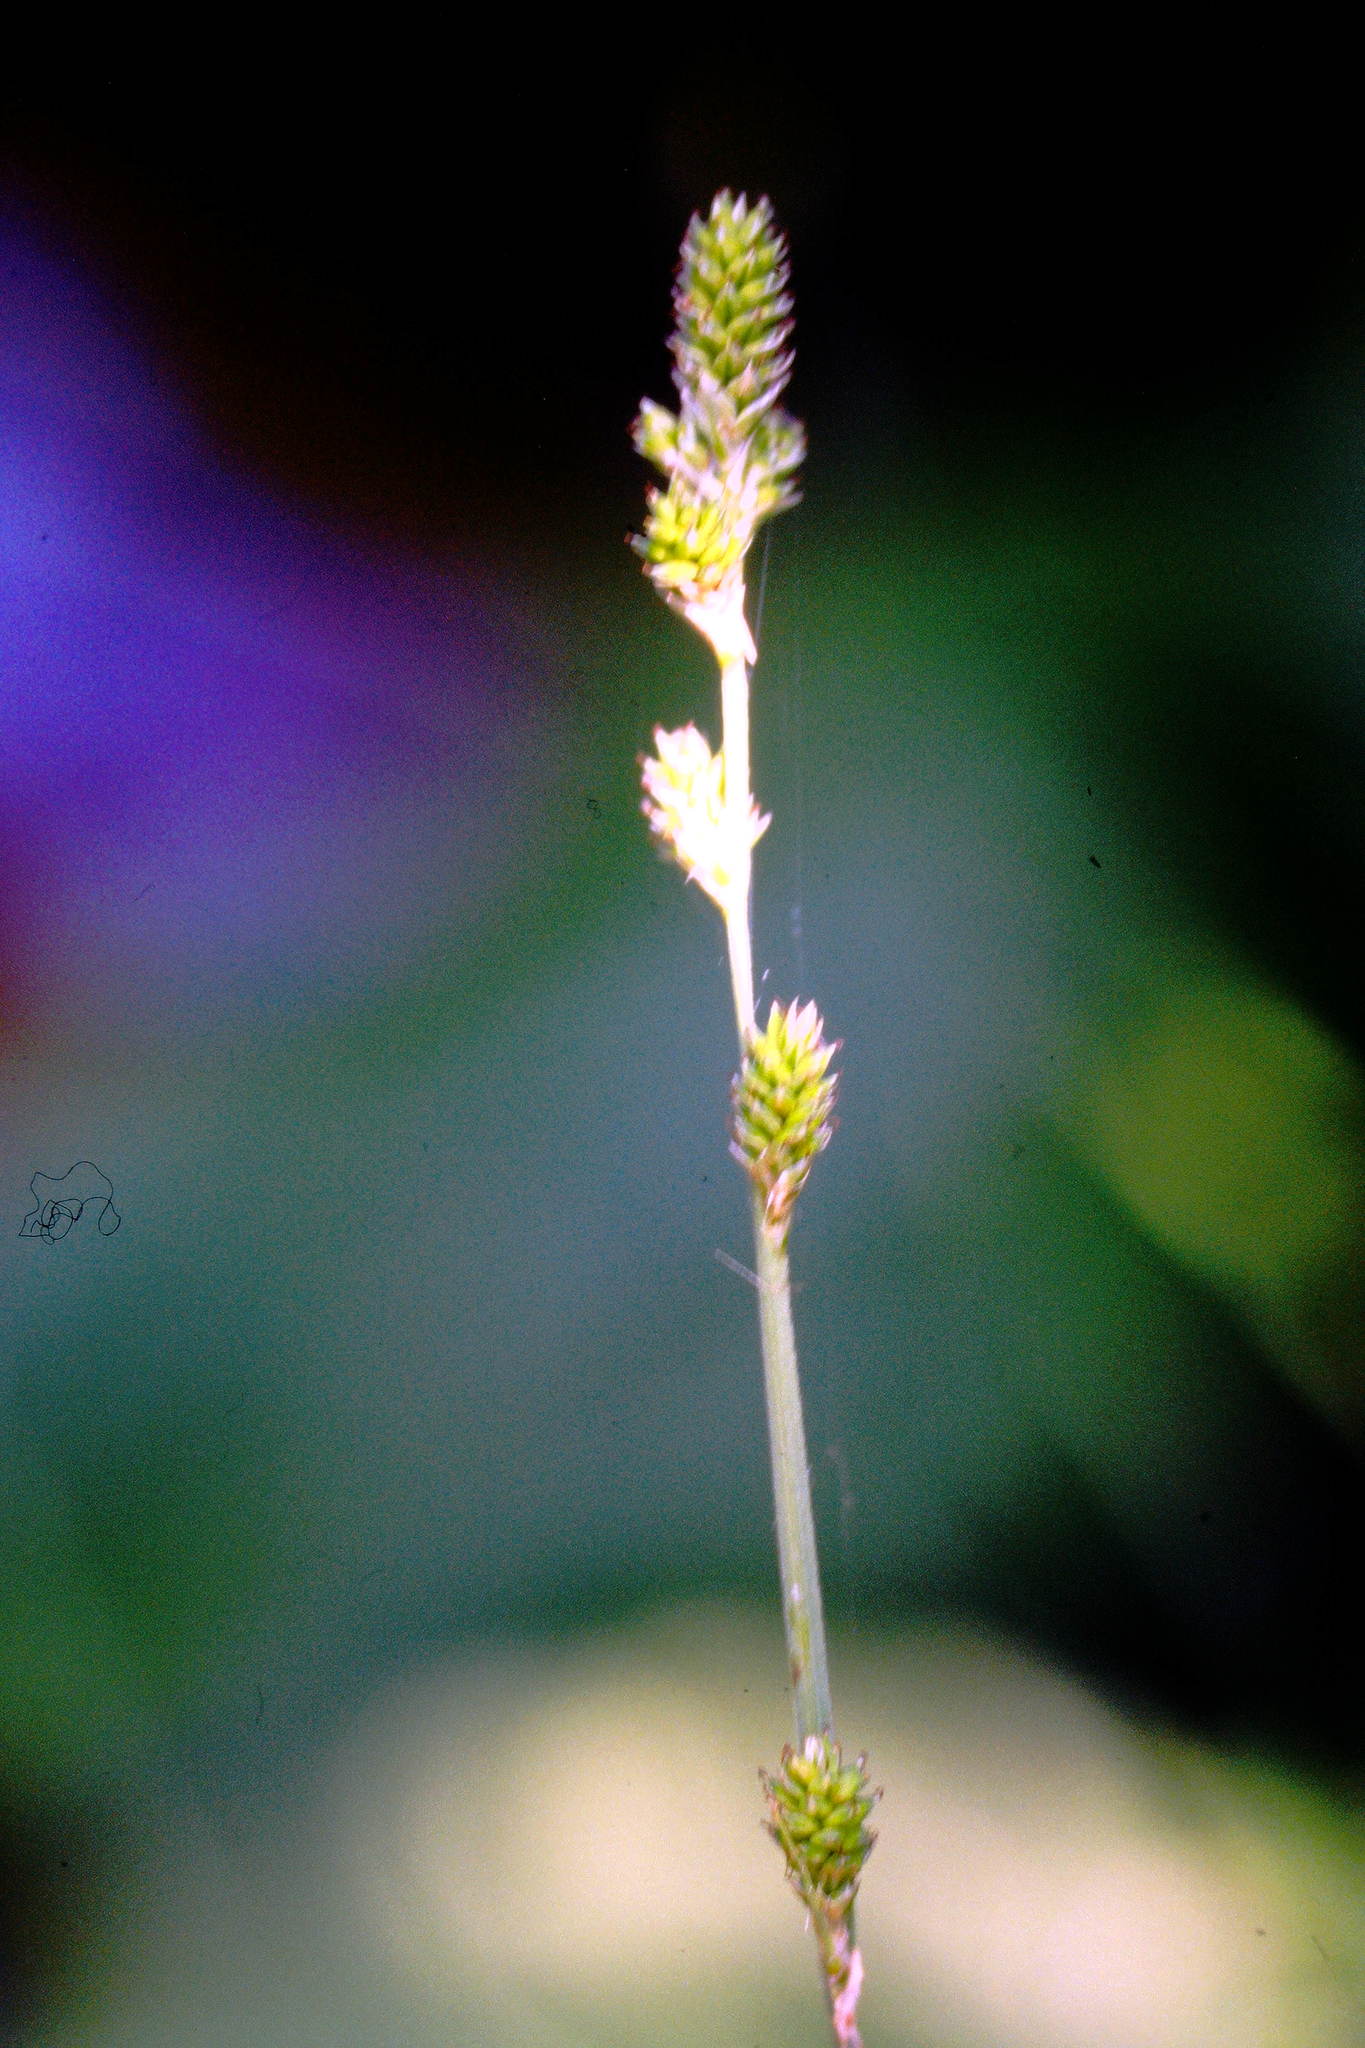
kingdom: Plantae
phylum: Tracheophyta
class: Liliopsida
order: Poales
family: Cyperaceae
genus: Carex
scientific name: Carex canescens
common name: White sedge
